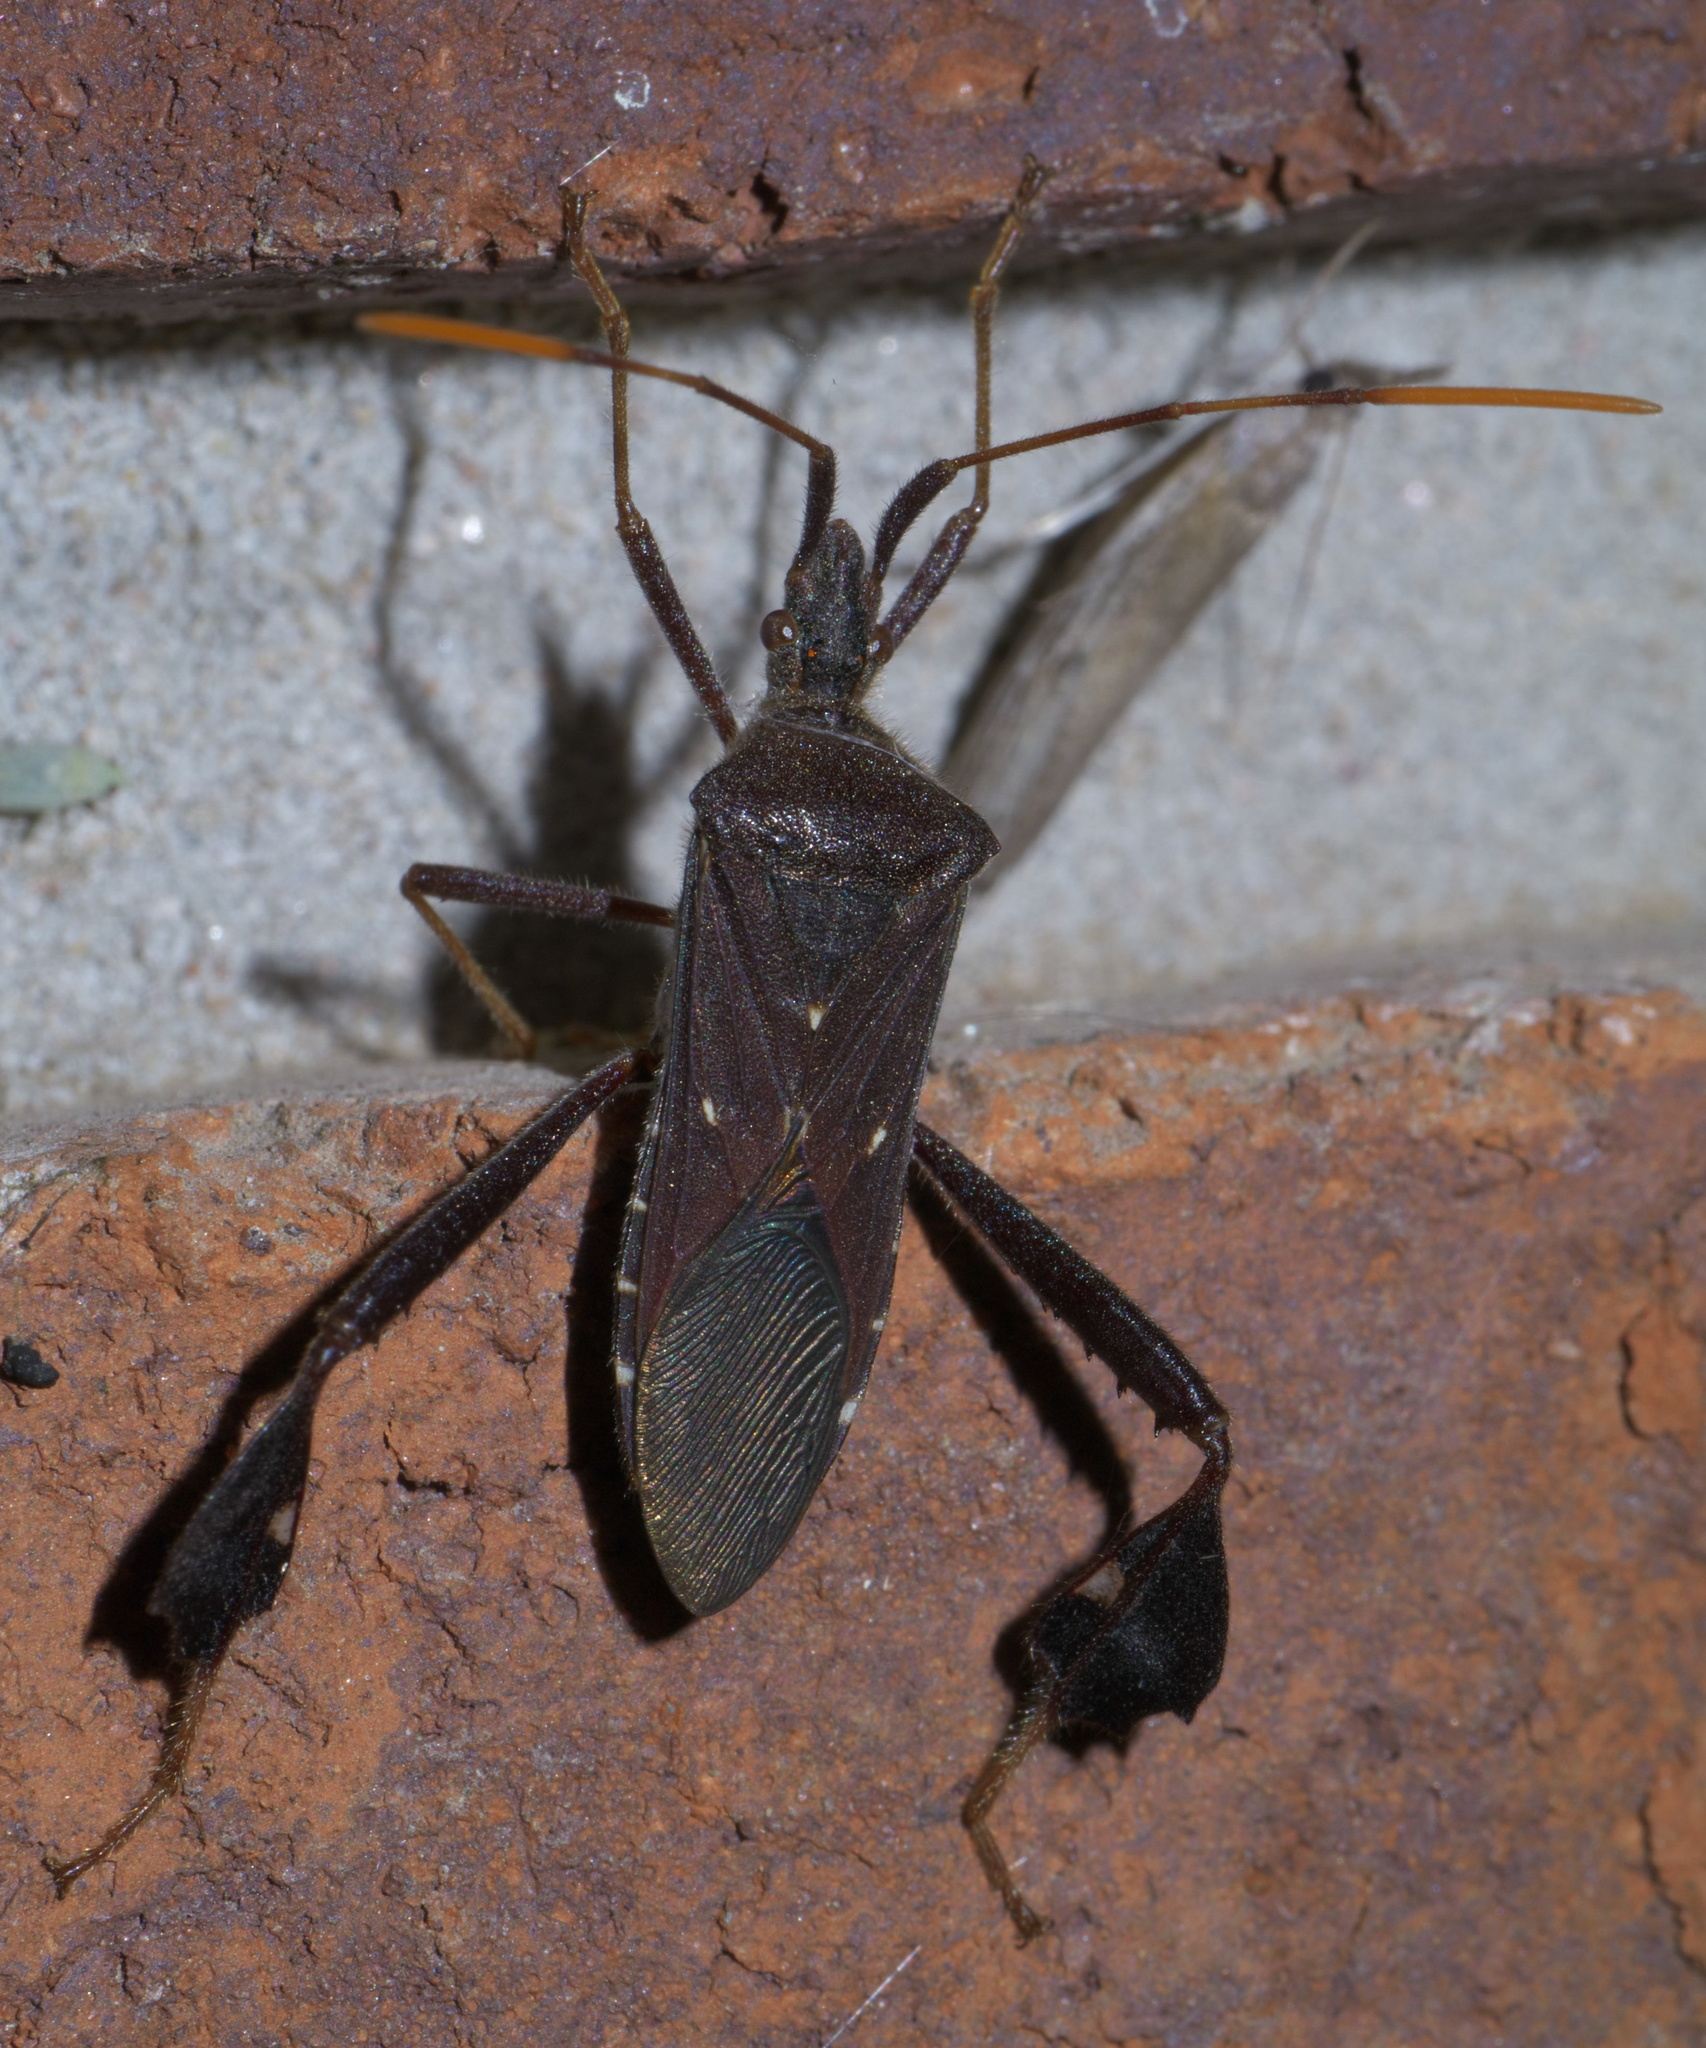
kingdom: Animalia
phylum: Arthropoda
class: Insecta
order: Hemiptera
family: Coreidae
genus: Leptoglossus
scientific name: Leptoglossus oppositus
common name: Northern leaf-footed bug
